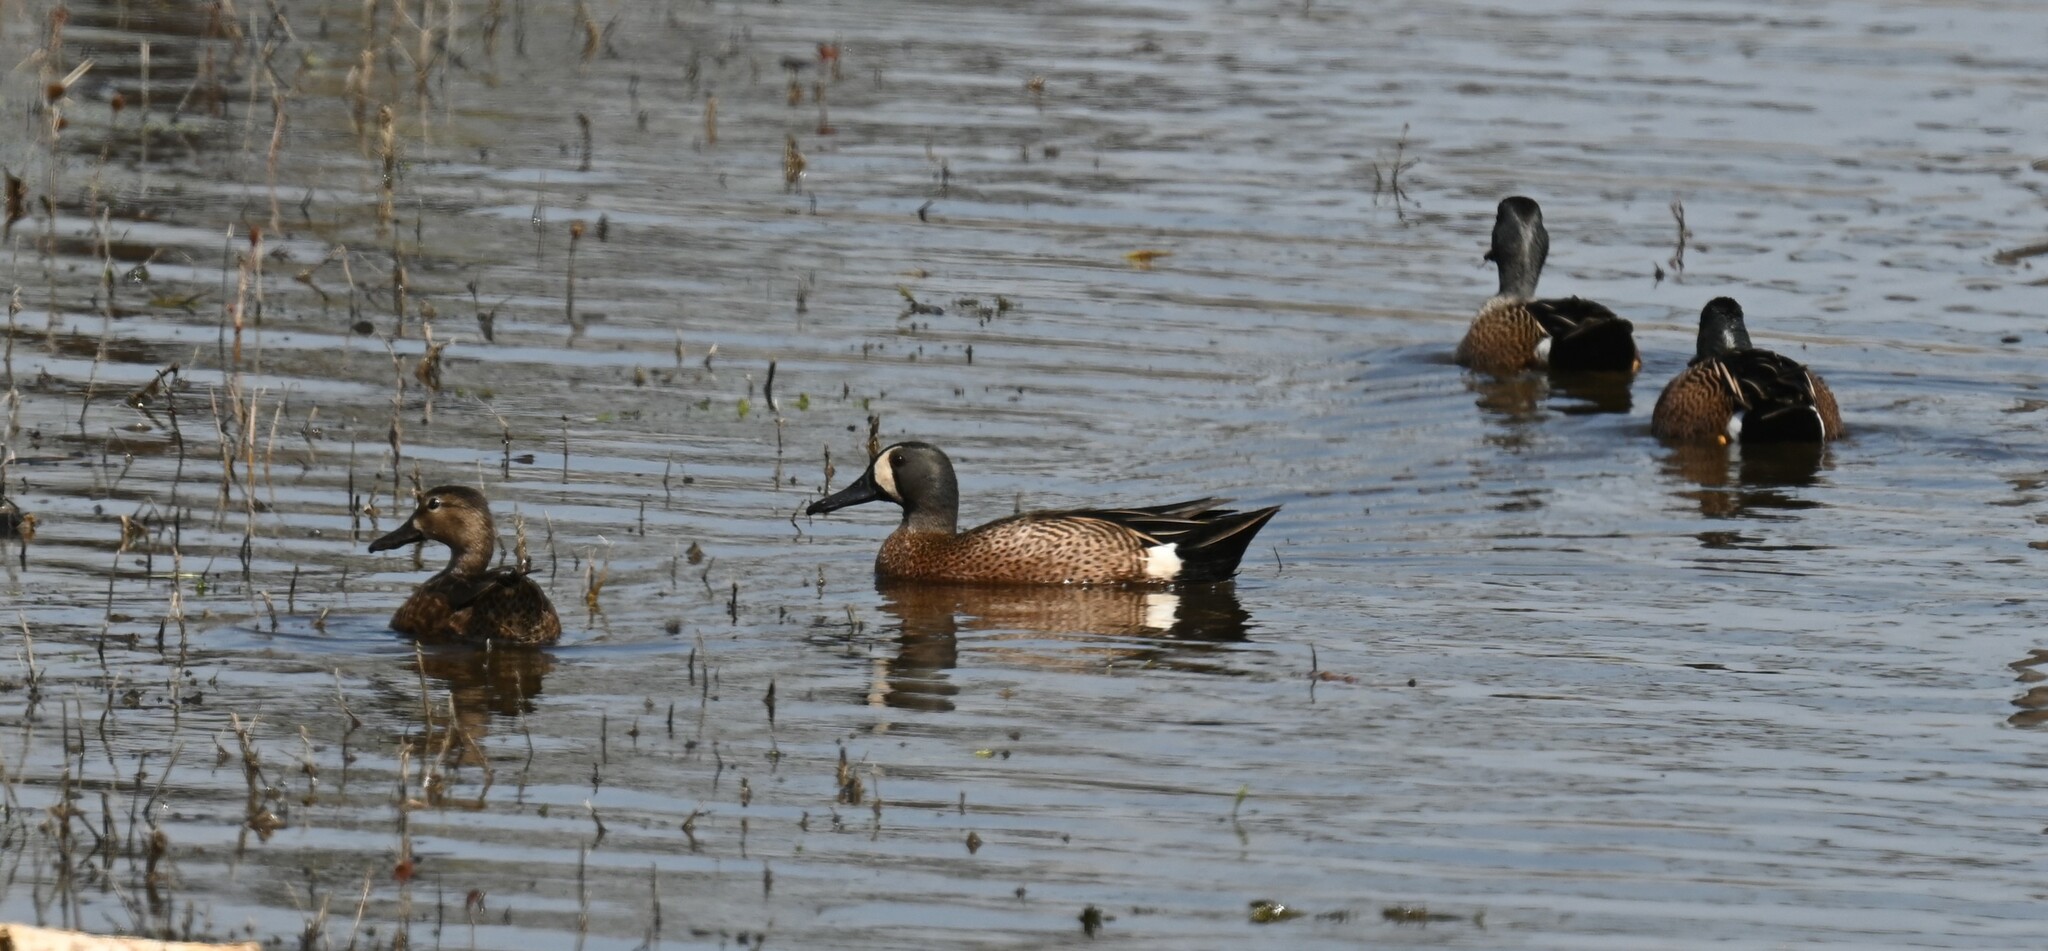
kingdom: Animalia
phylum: Chordata
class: Aves
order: Anseriformes
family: Anatidae
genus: Spatula
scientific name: Spatula discors
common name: Blue-winged teal
